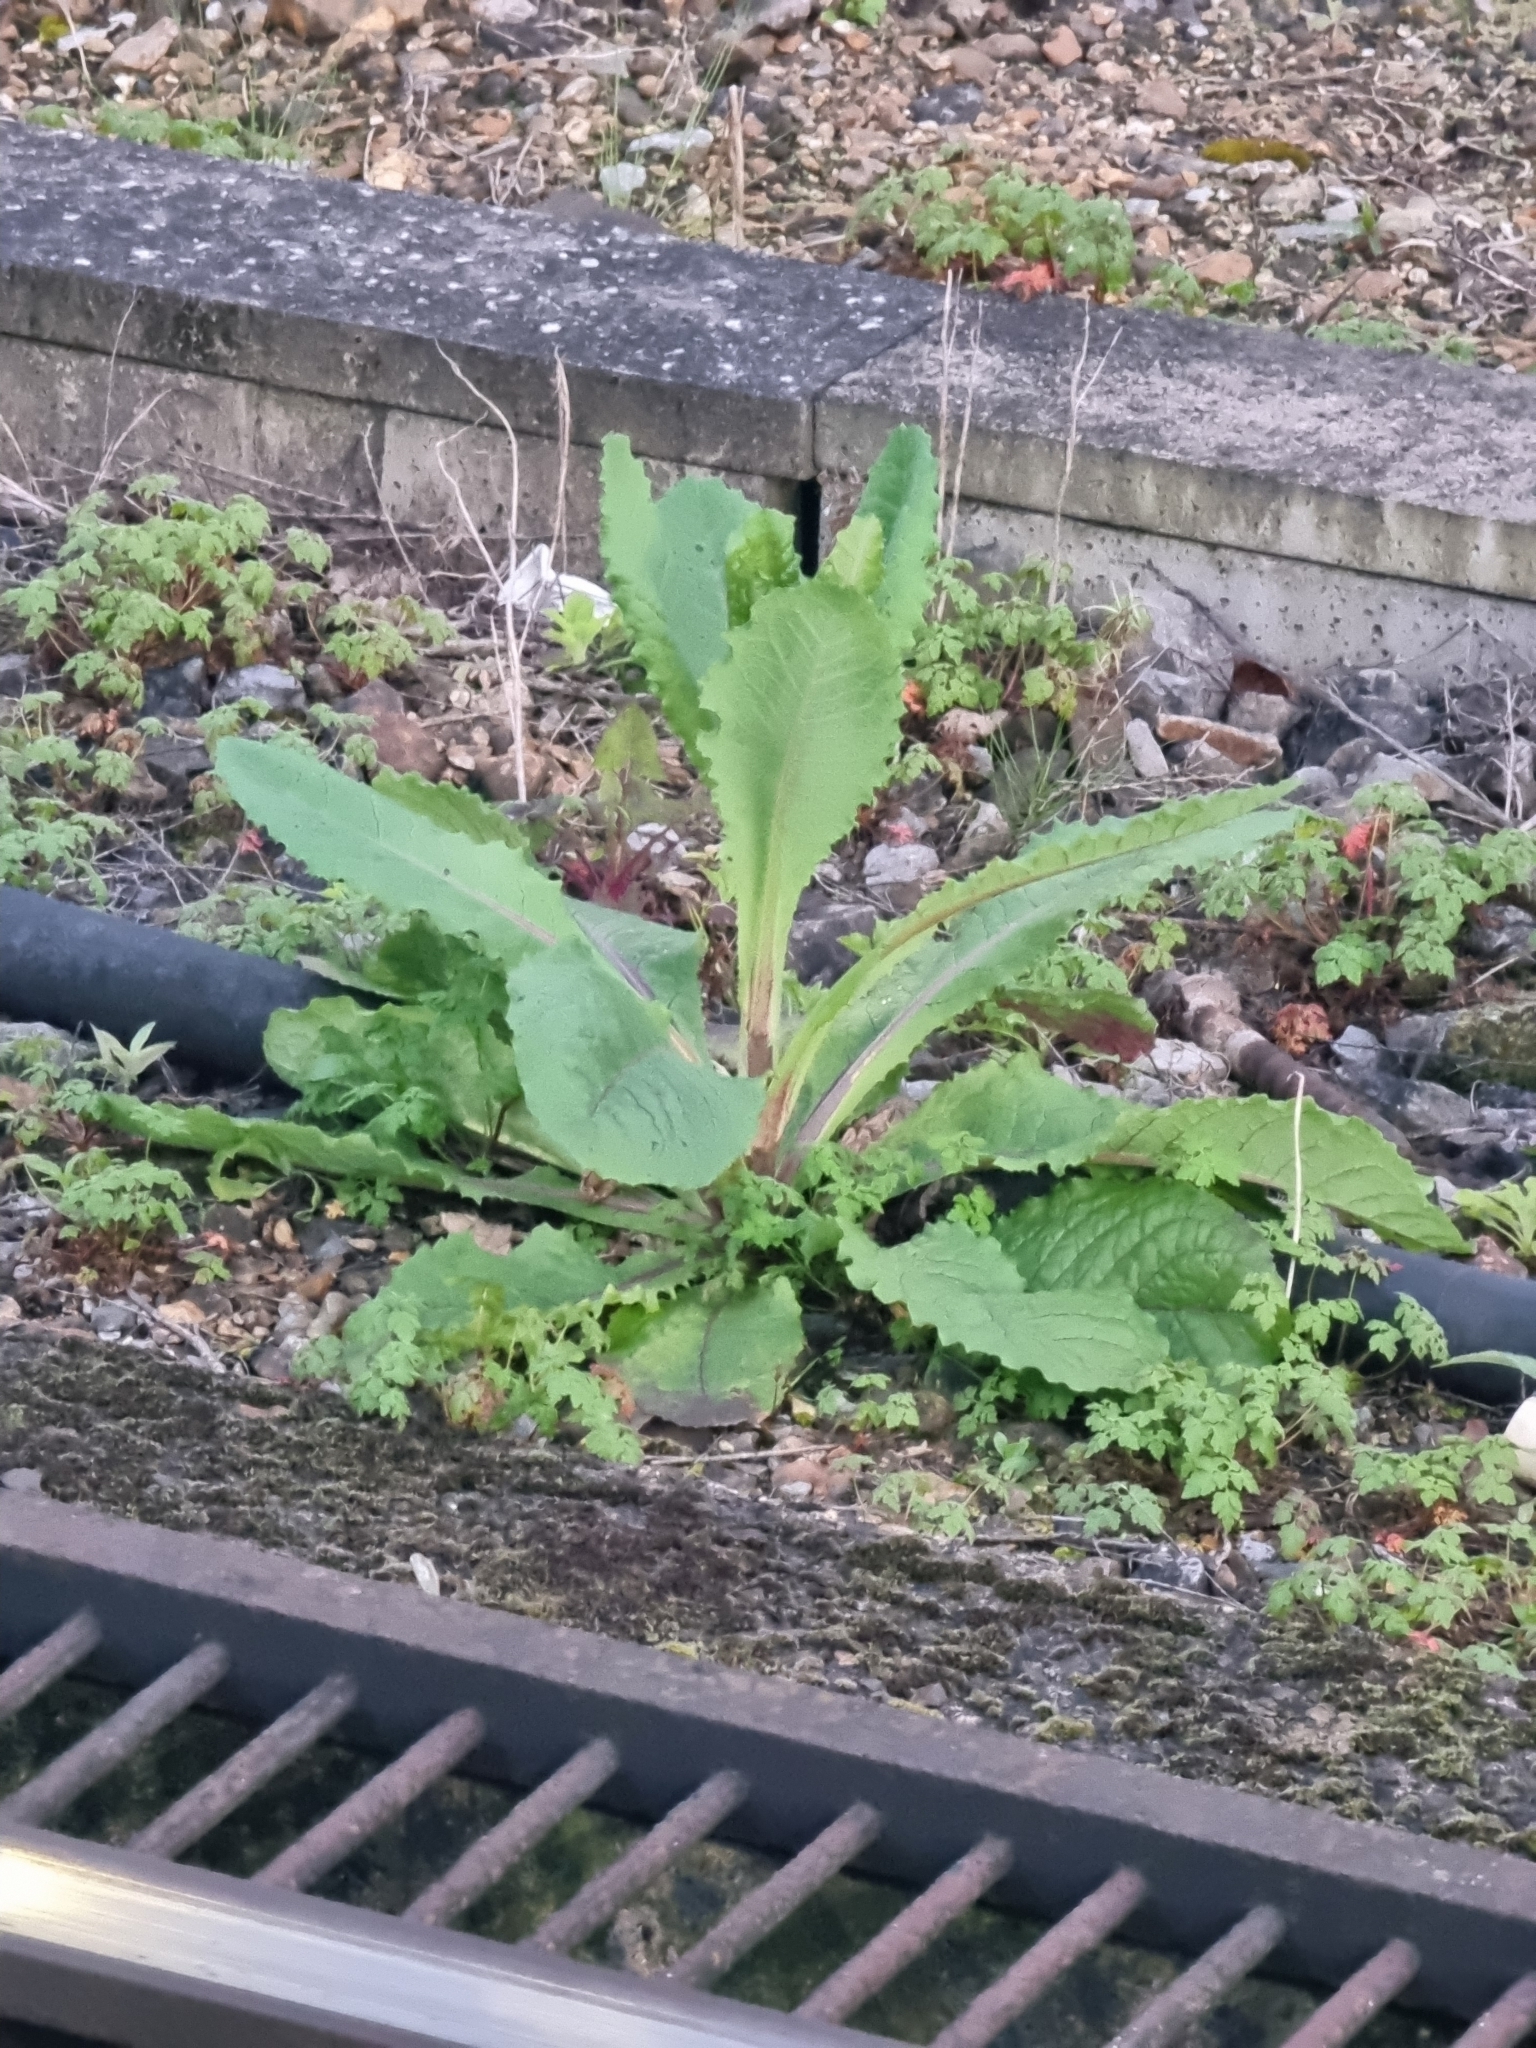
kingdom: Plantae
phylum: Tracheophyta
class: Magnoliopsida
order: Asterales
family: Asteraceae
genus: Lactuca
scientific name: Lactuca virosa
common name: Great lettuce
